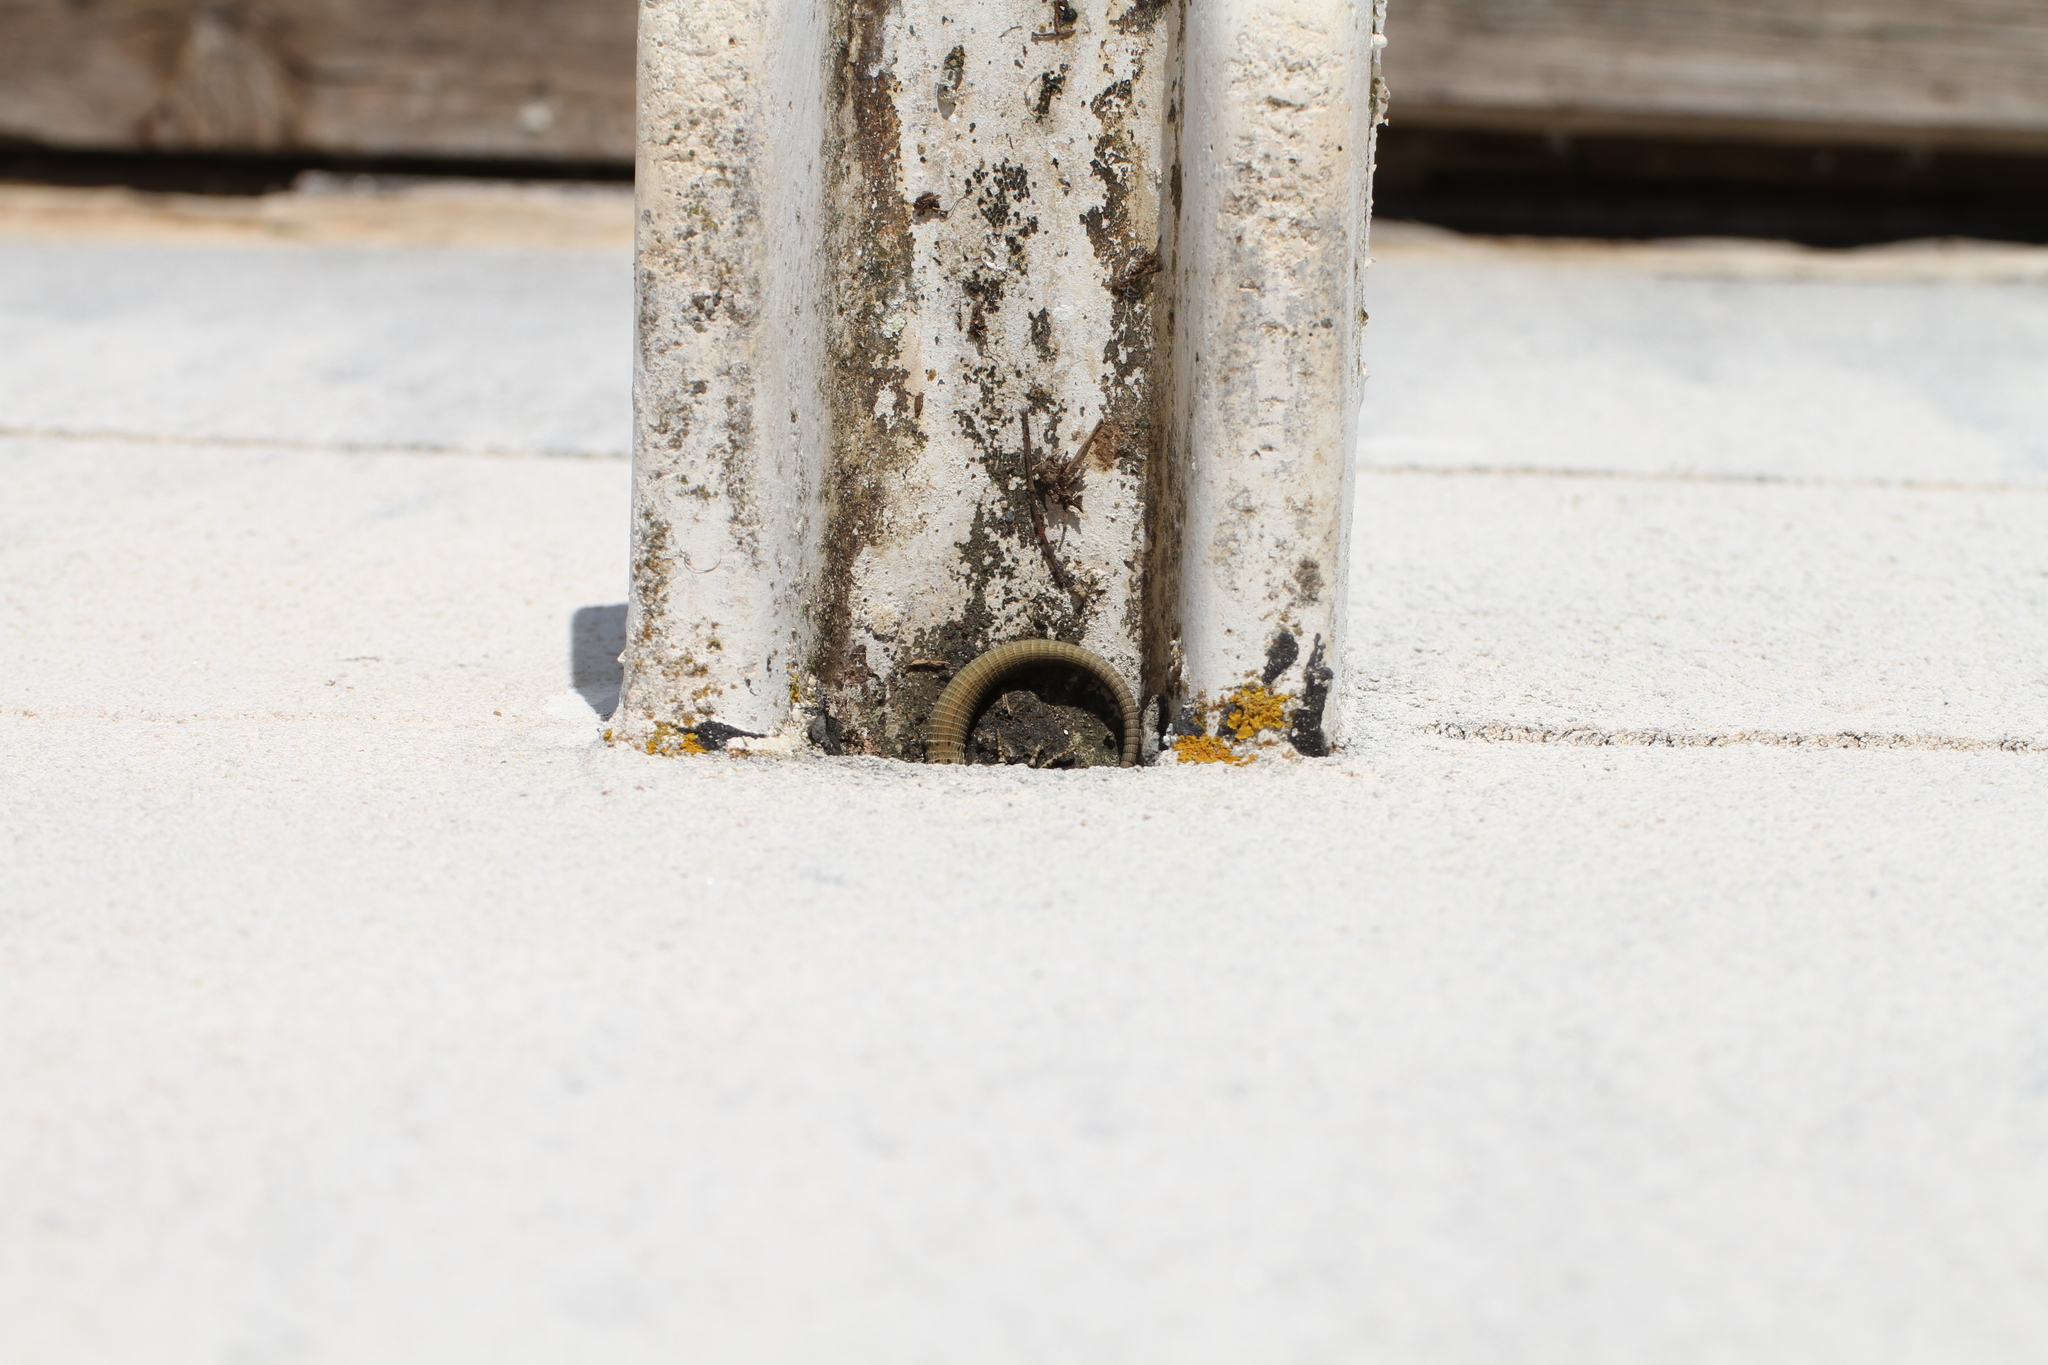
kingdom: Animalia
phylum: Chordata
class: Squamata
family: Lacertidae
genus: Podarcis
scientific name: Podarcis vaucheri
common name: Vaucher's wall lizard
